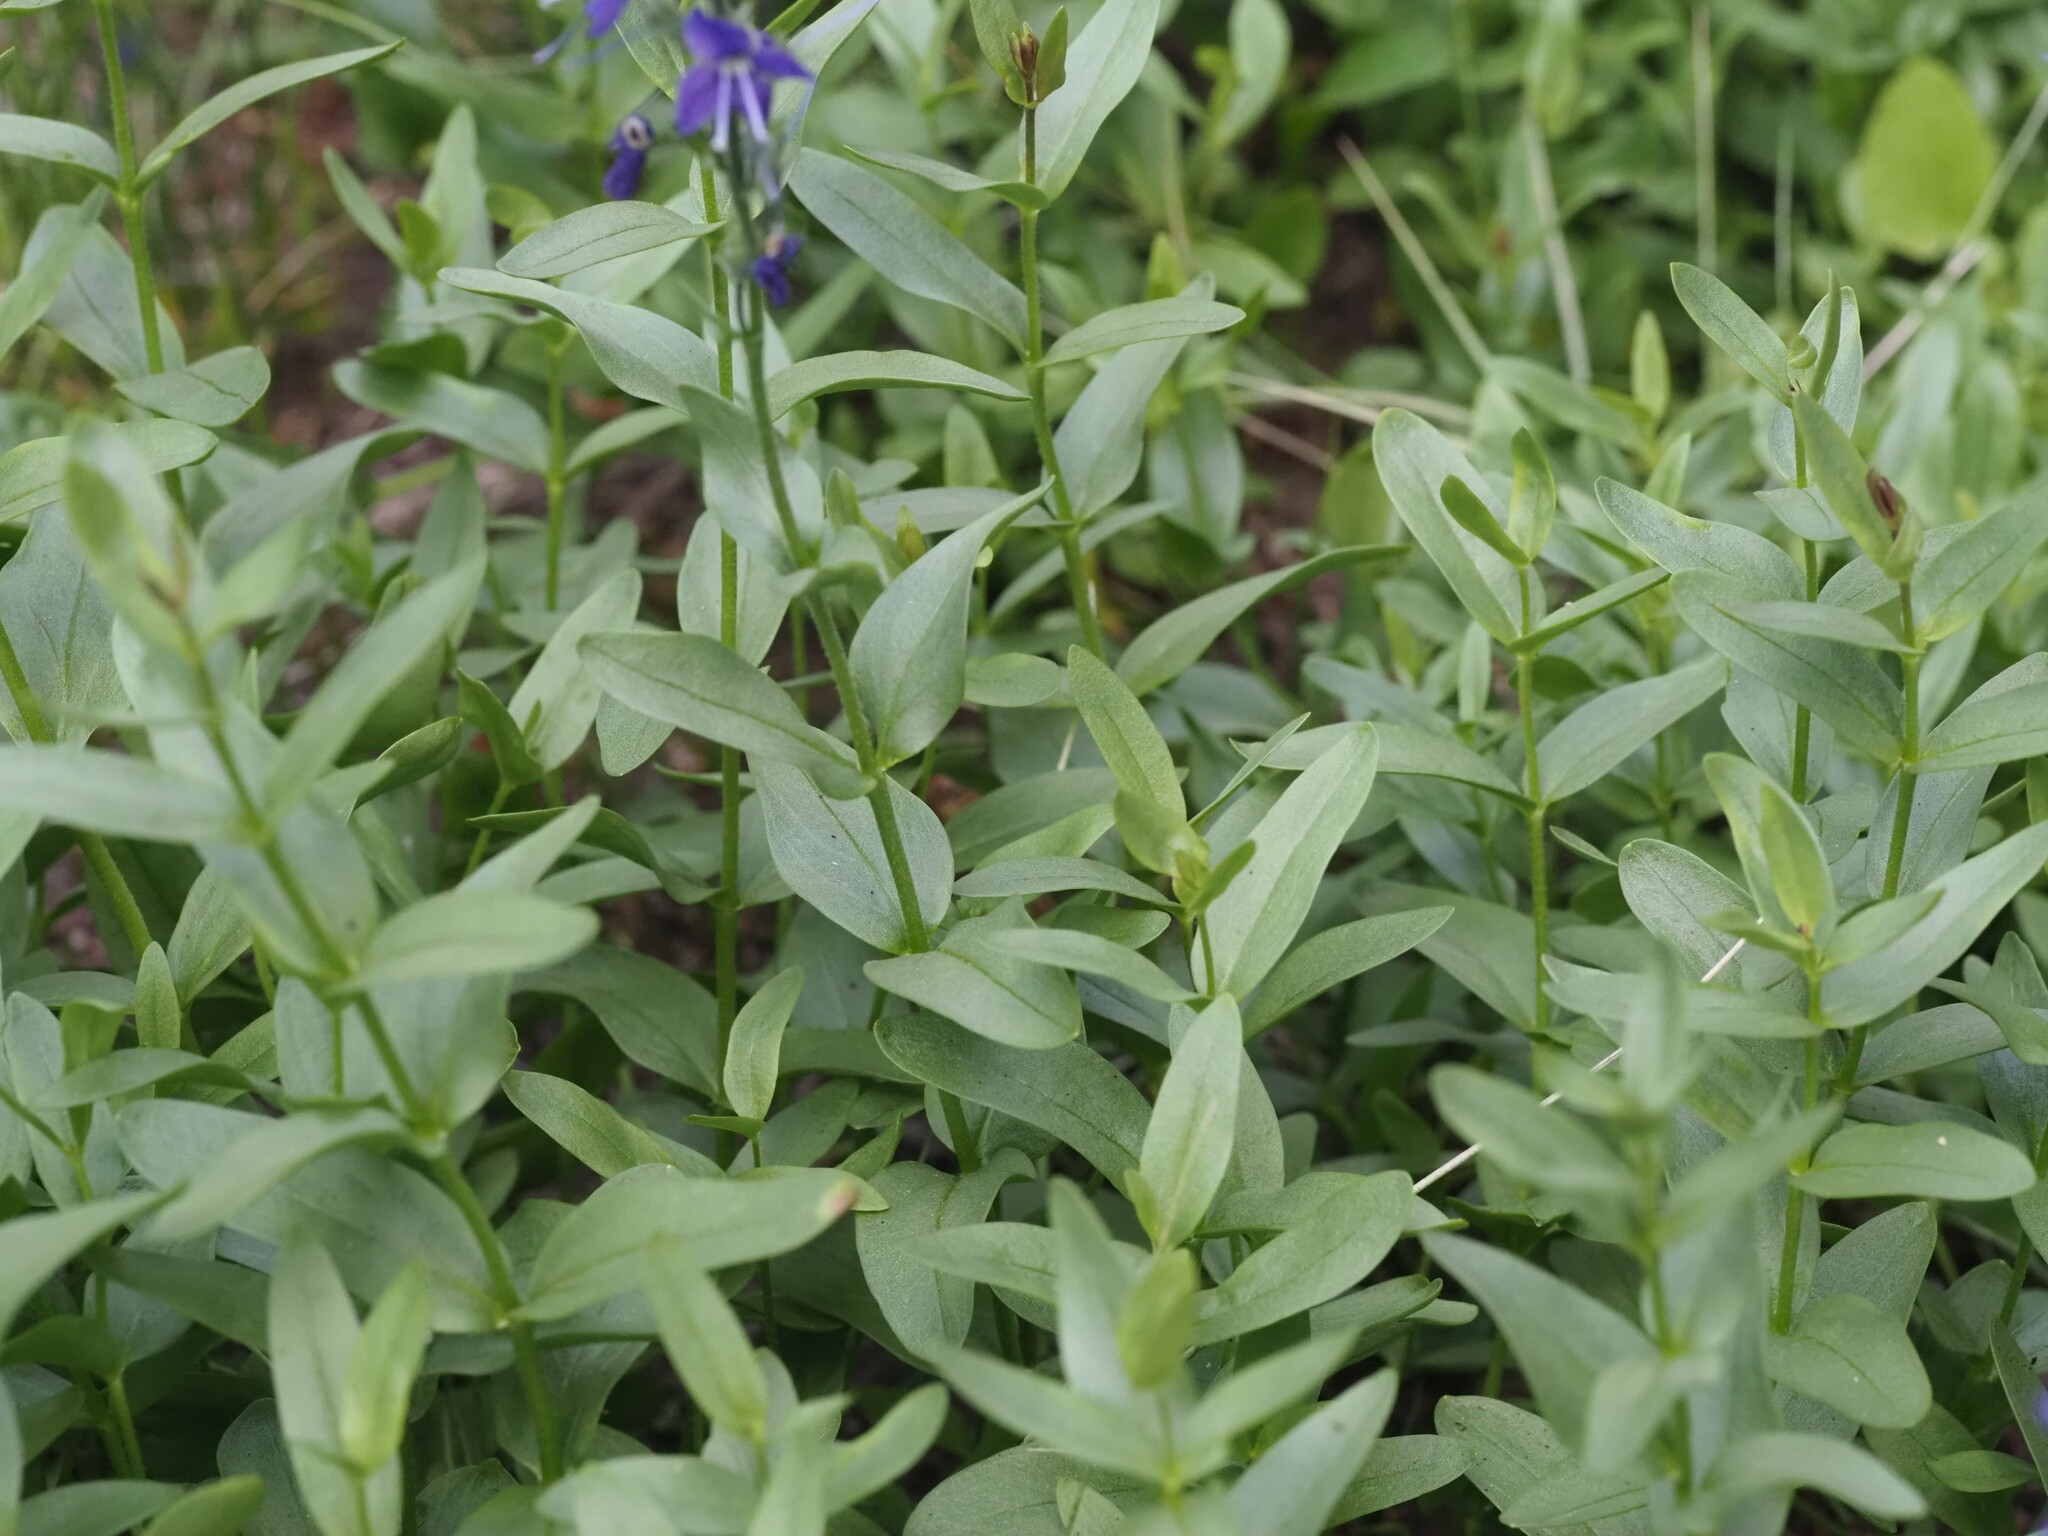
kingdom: Plantae
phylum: Tracheophyta
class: Magnoliopsida
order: Lamiales
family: Plantaginaceae
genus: Veronica
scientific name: Veronica cusickii
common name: Cusick's speedwell
